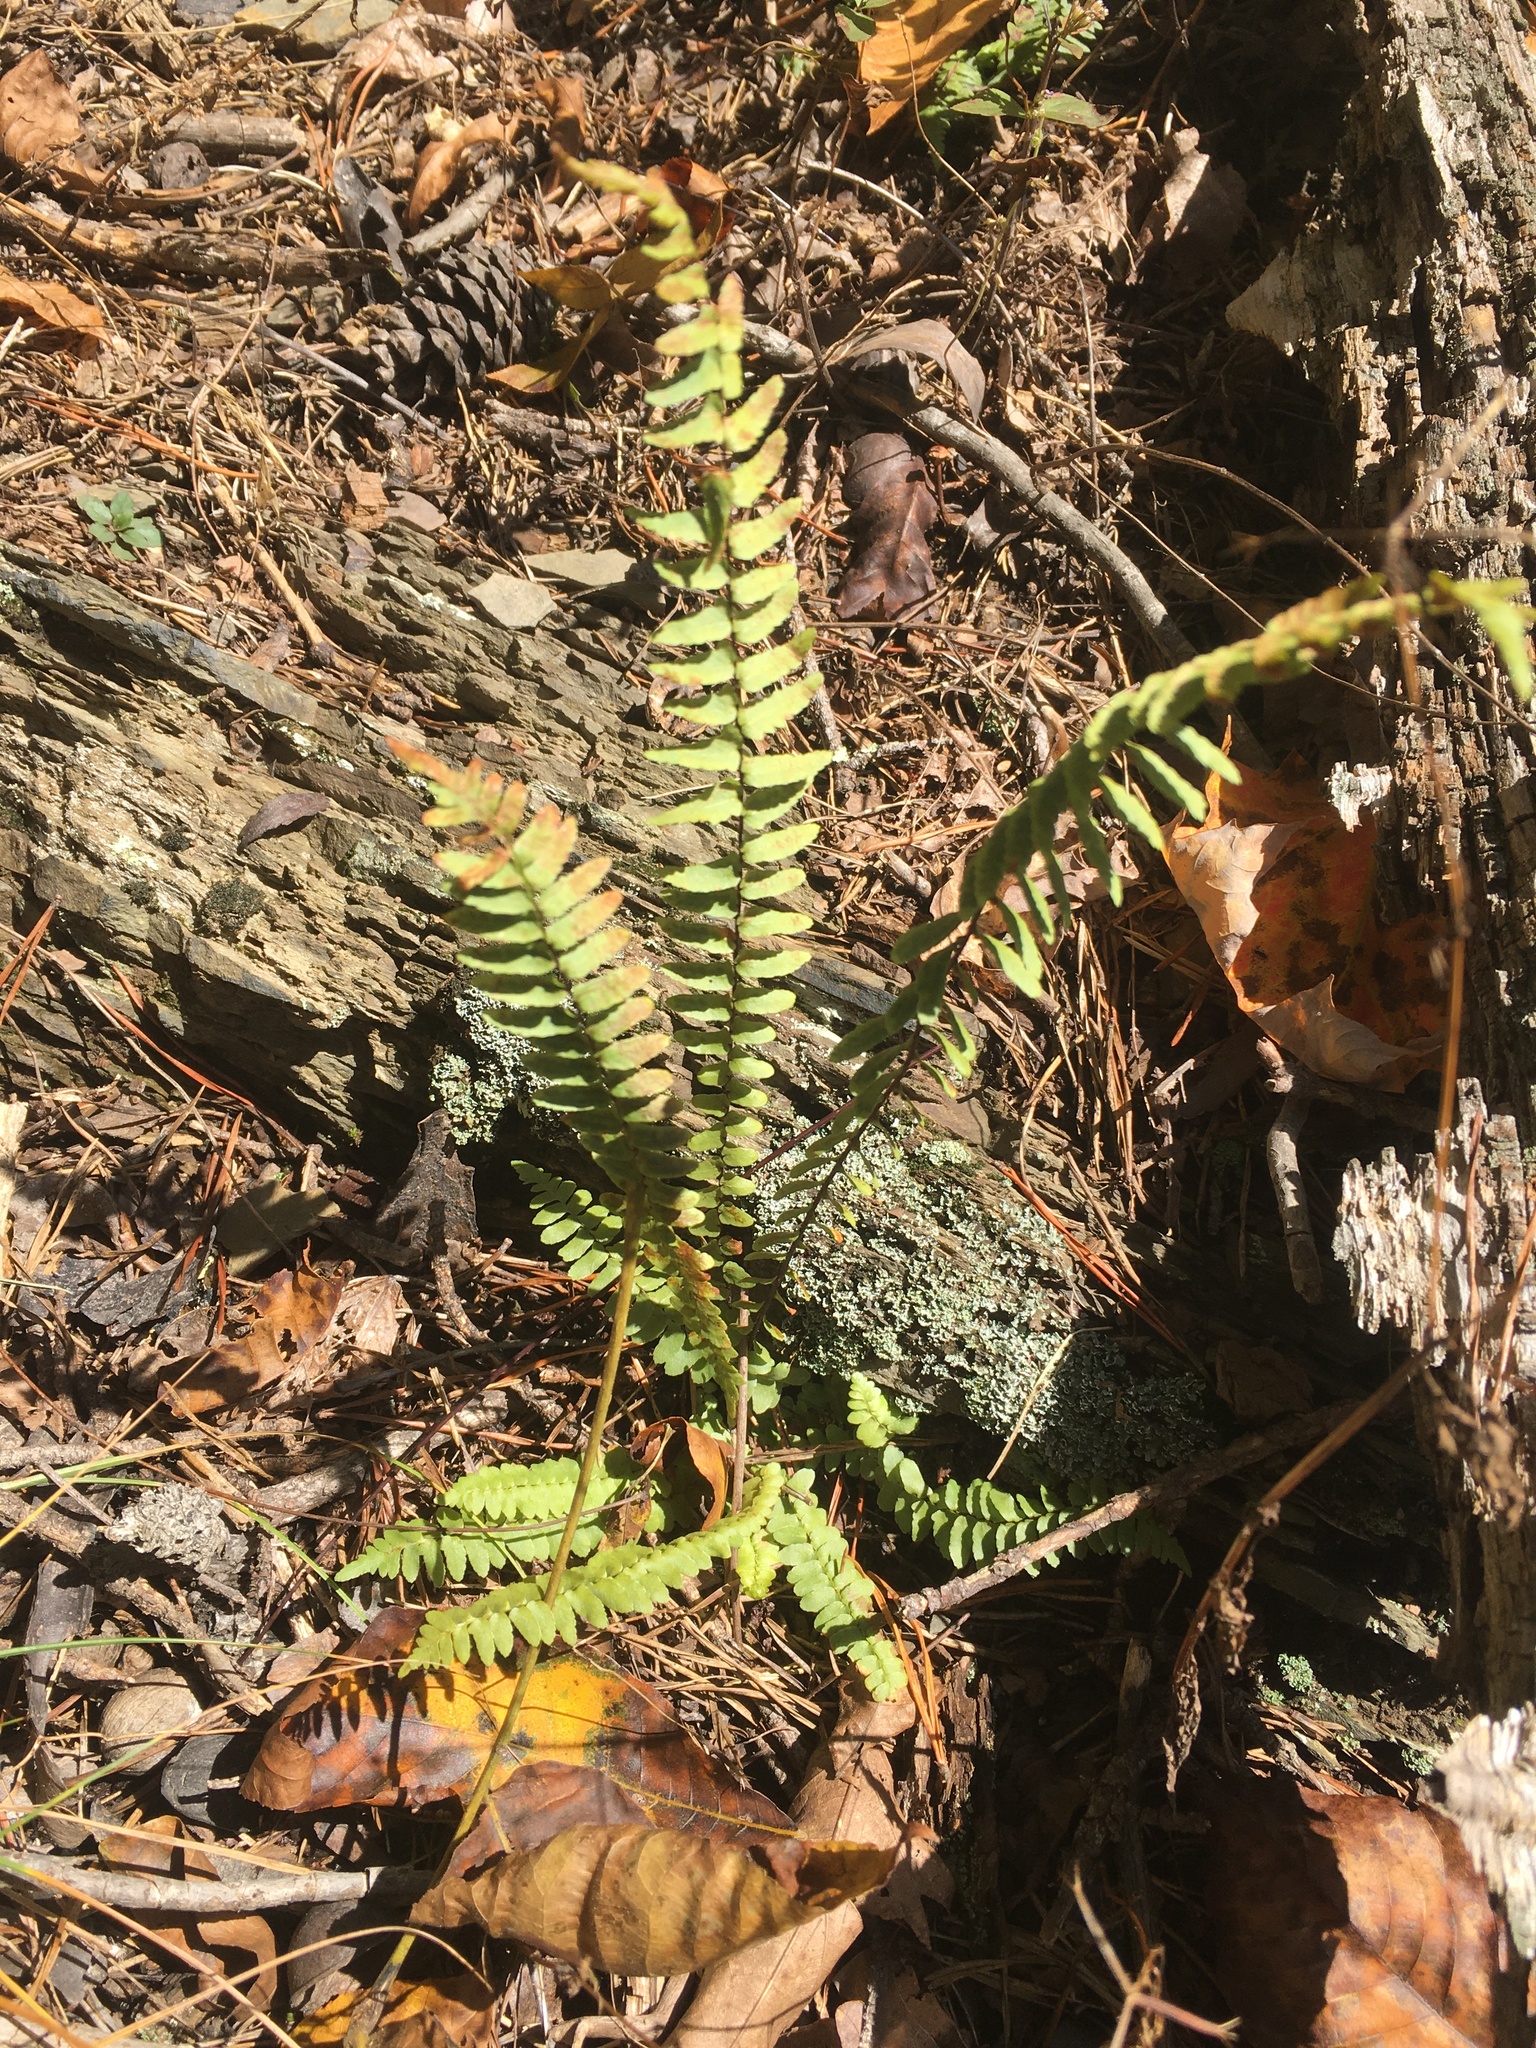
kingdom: Plantae
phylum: Tracheophyta
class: Polypodiopsida
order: Polypodiales
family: Aspleniaceae
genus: Asplenium
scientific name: Asplenium platyneuron
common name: Ebony spleenwort
